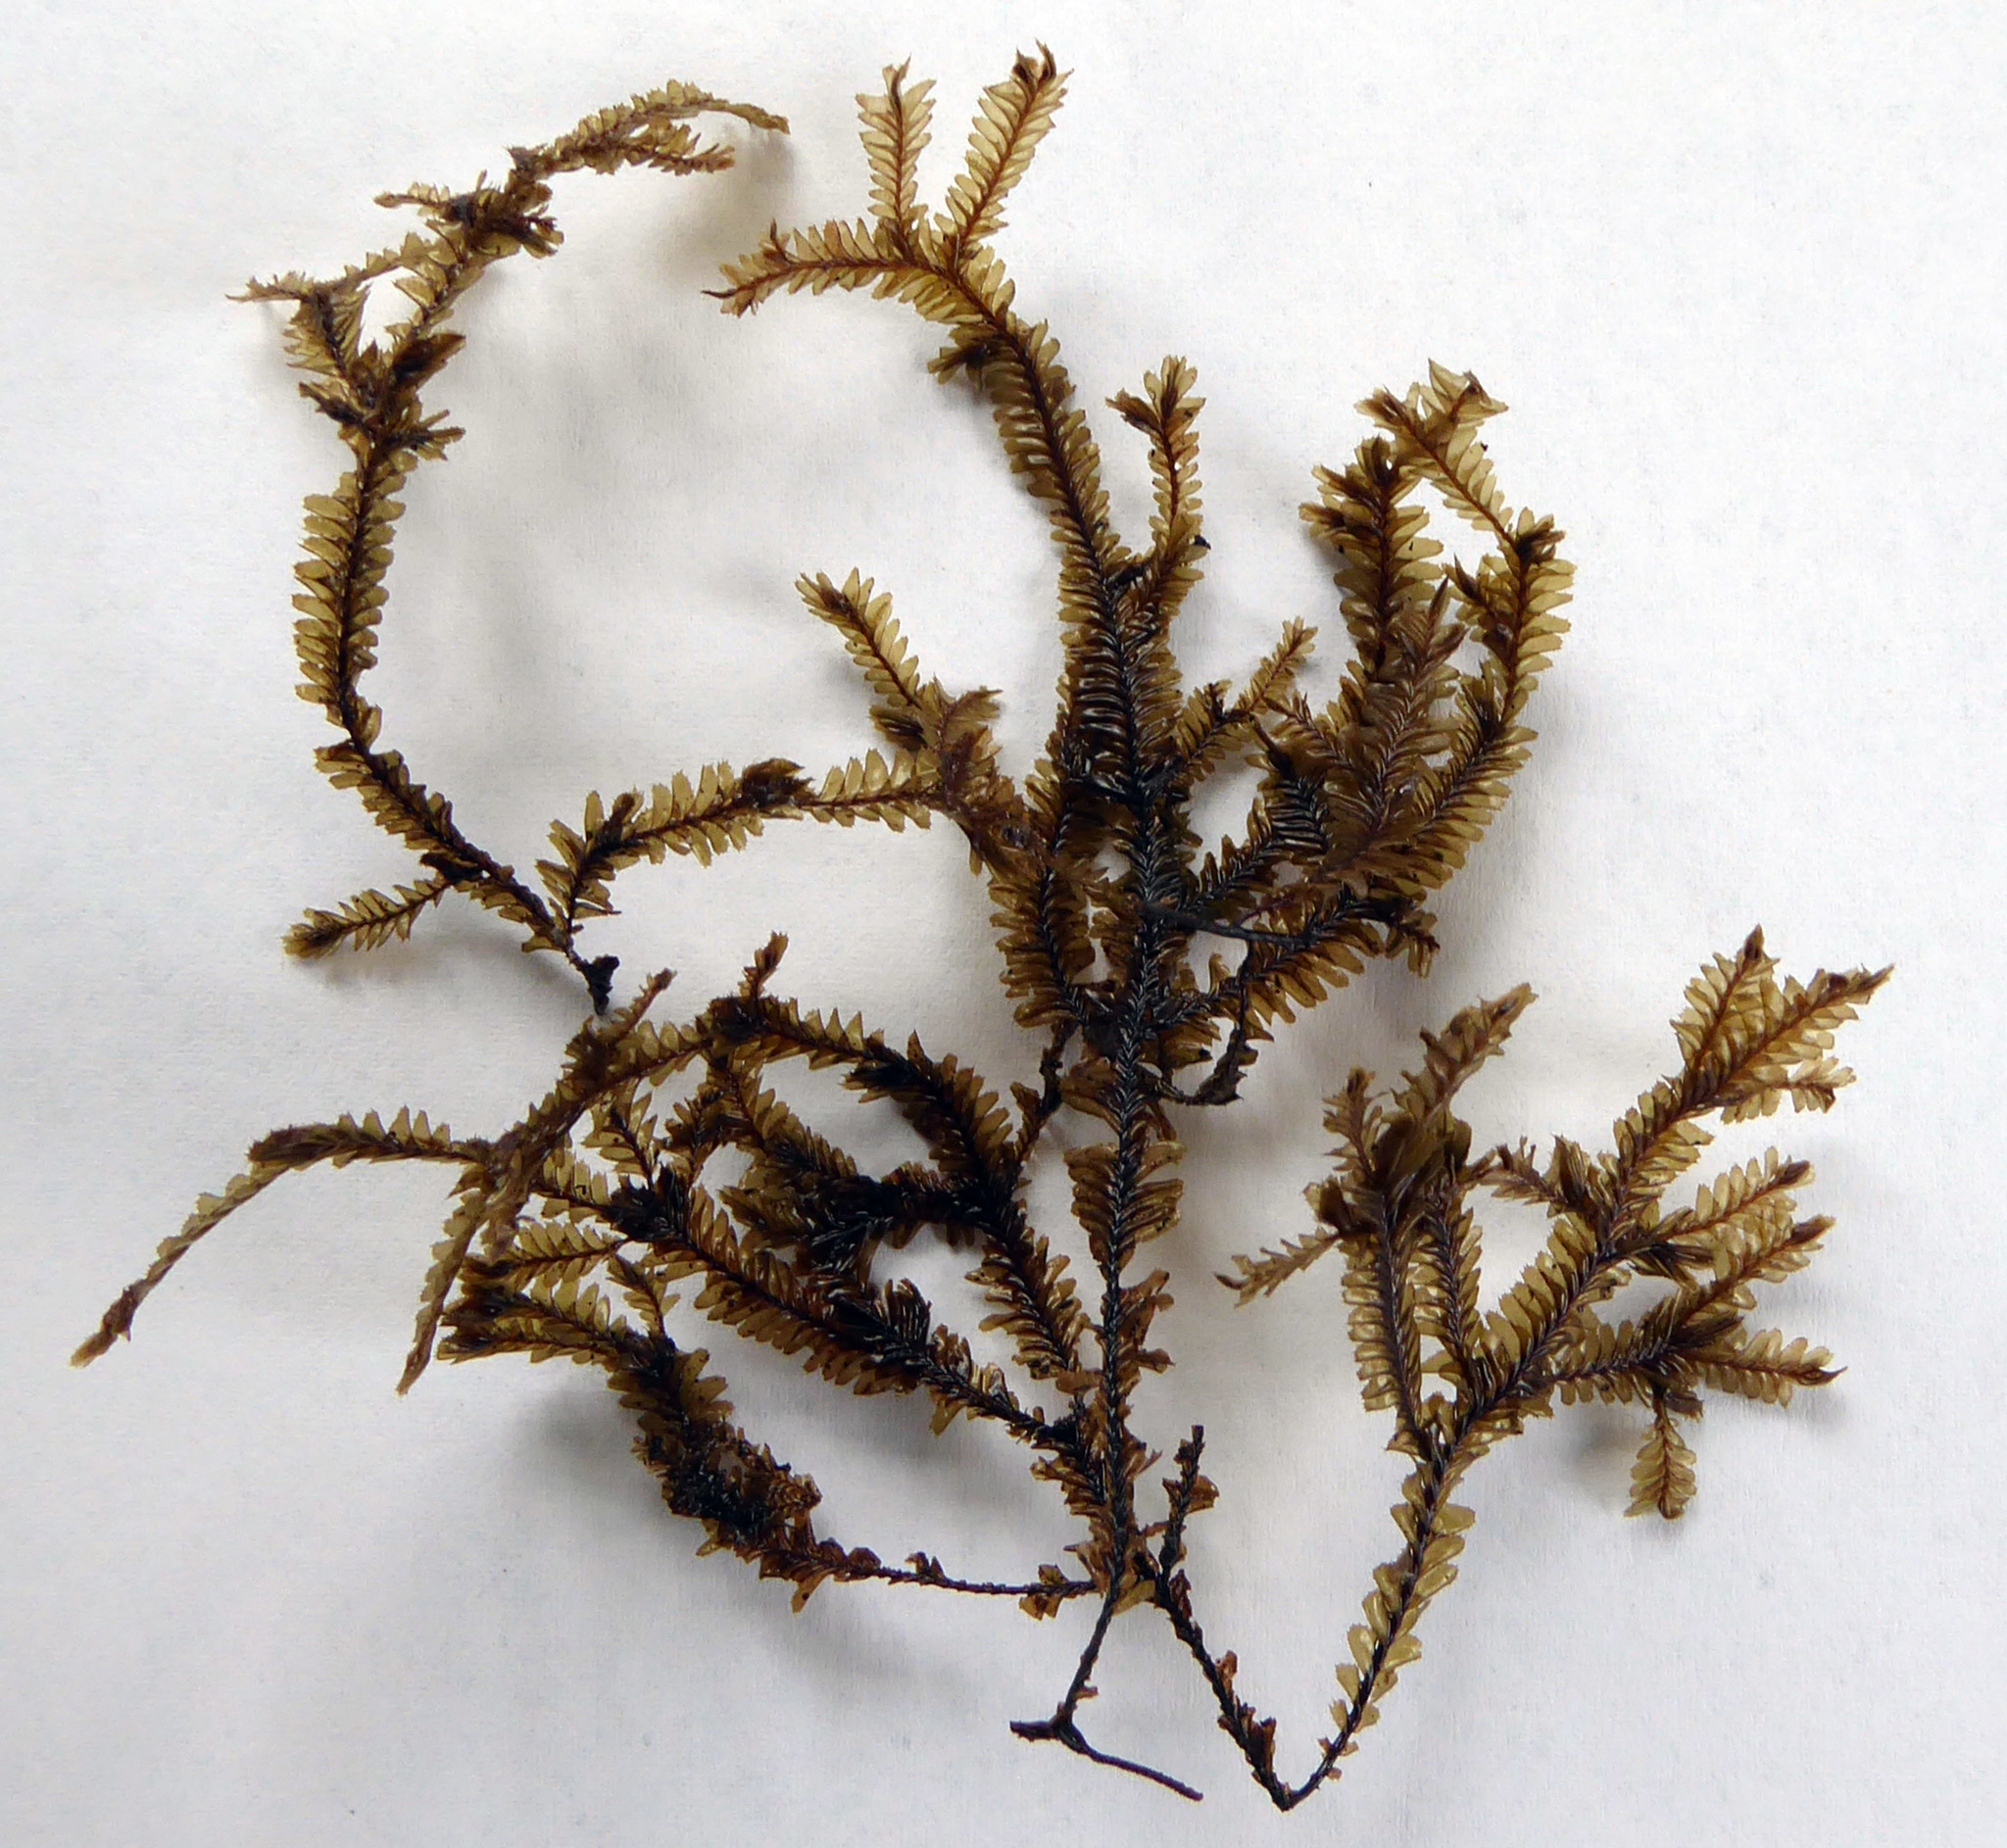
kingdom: Plantae
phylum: Marchantiophyta
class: Jungermanniopsida
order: Jungermanniales
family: Plagiochilaceae
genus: Plagiochila
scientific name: Plagiochila arbuscula
